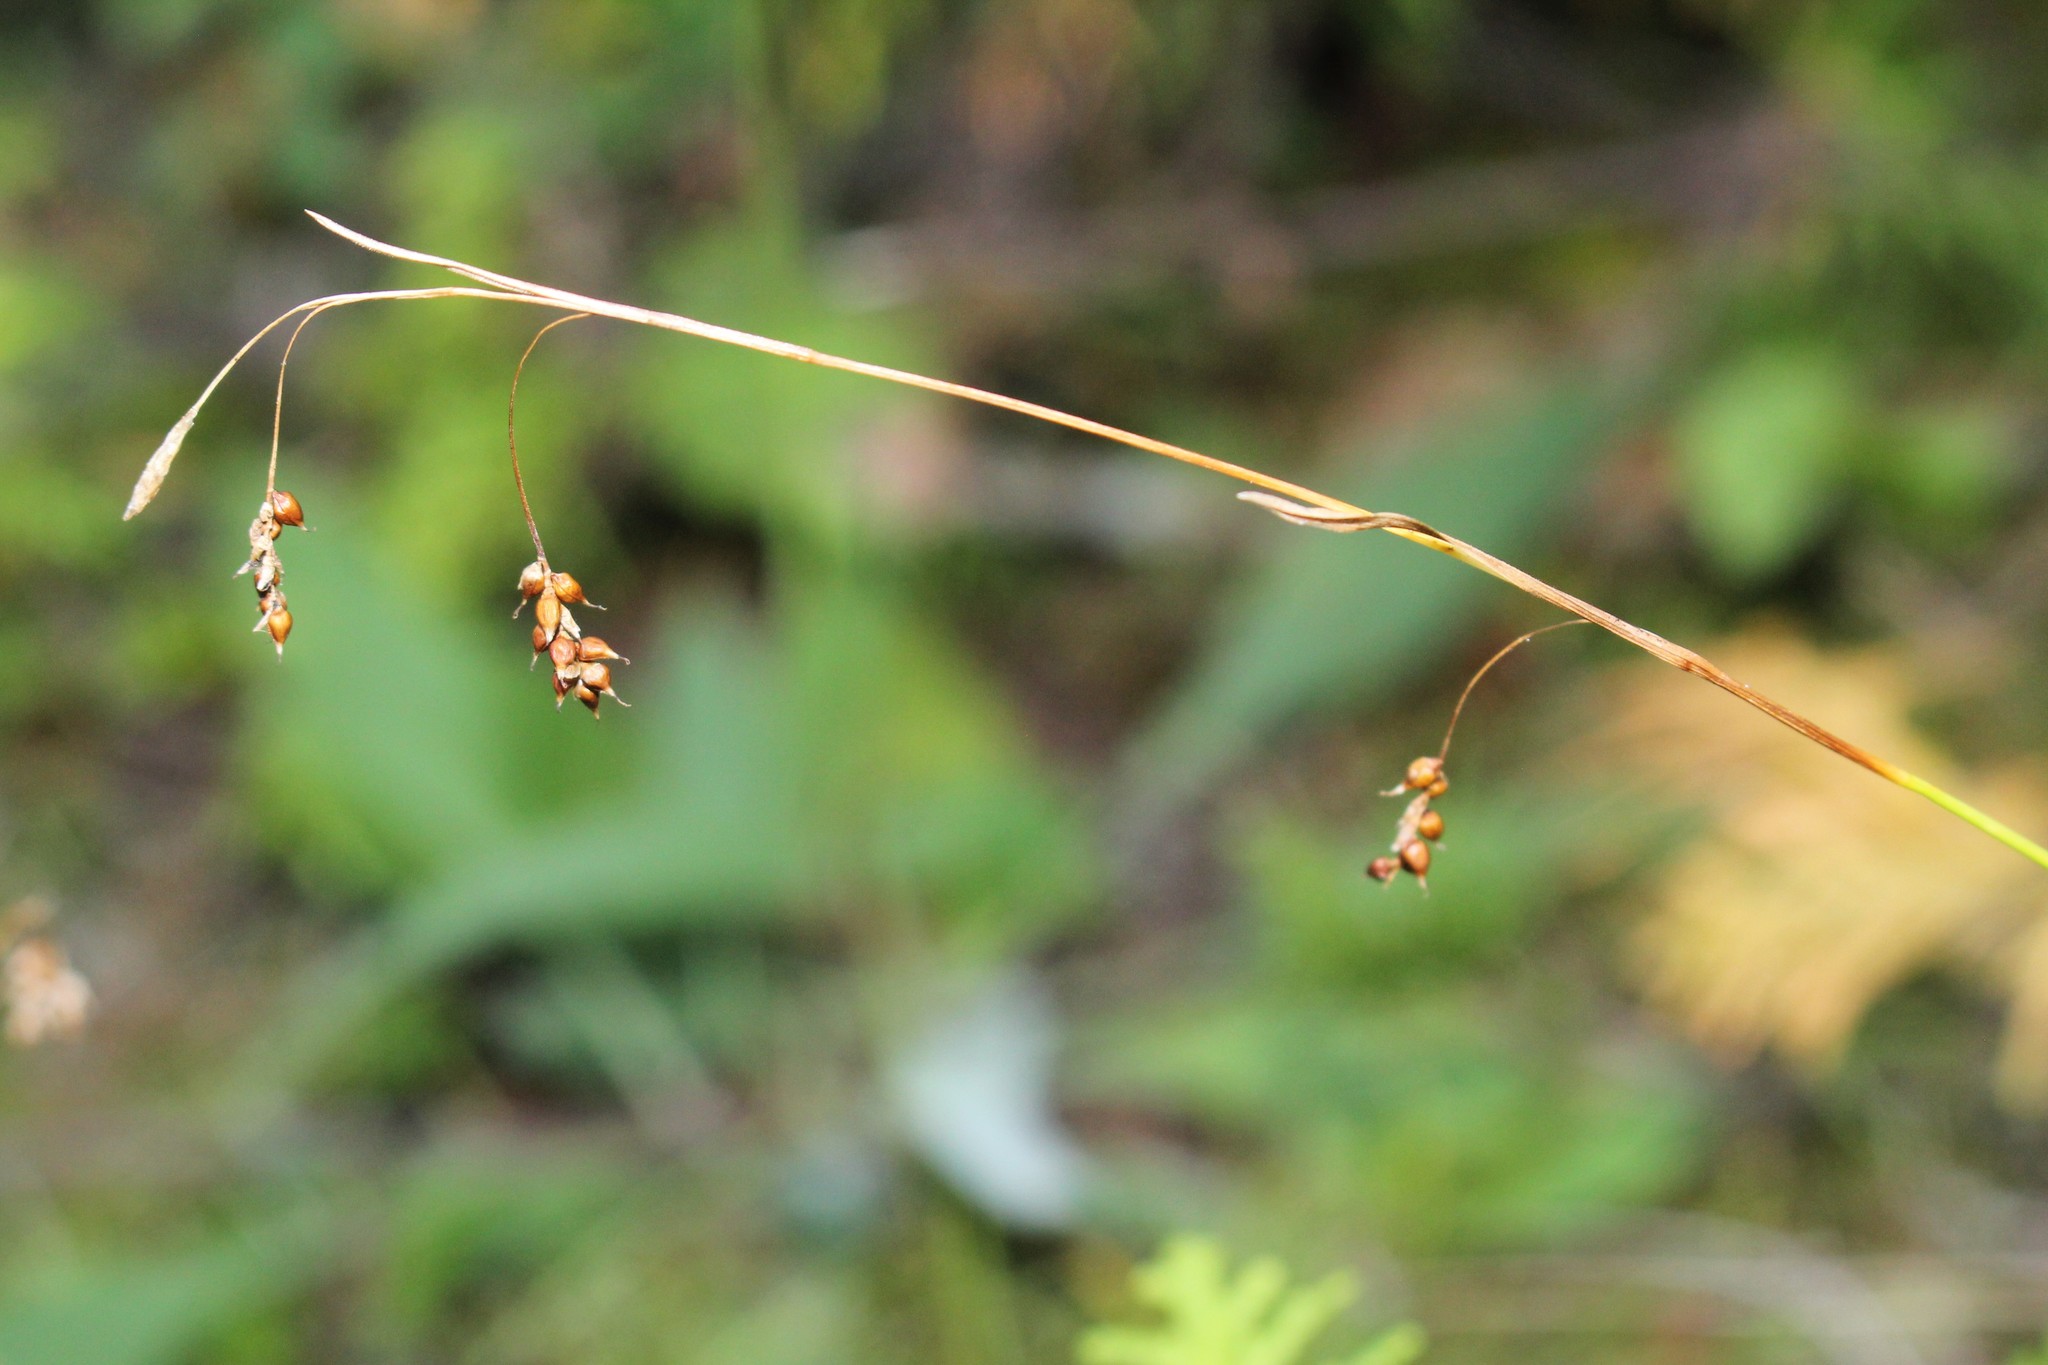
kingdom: Plantae
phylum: Tracheophyta
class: Liliopsida
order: Poales
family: Cyperaceae
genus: Carex
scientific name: Carex capillaris
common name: Hair sedge
